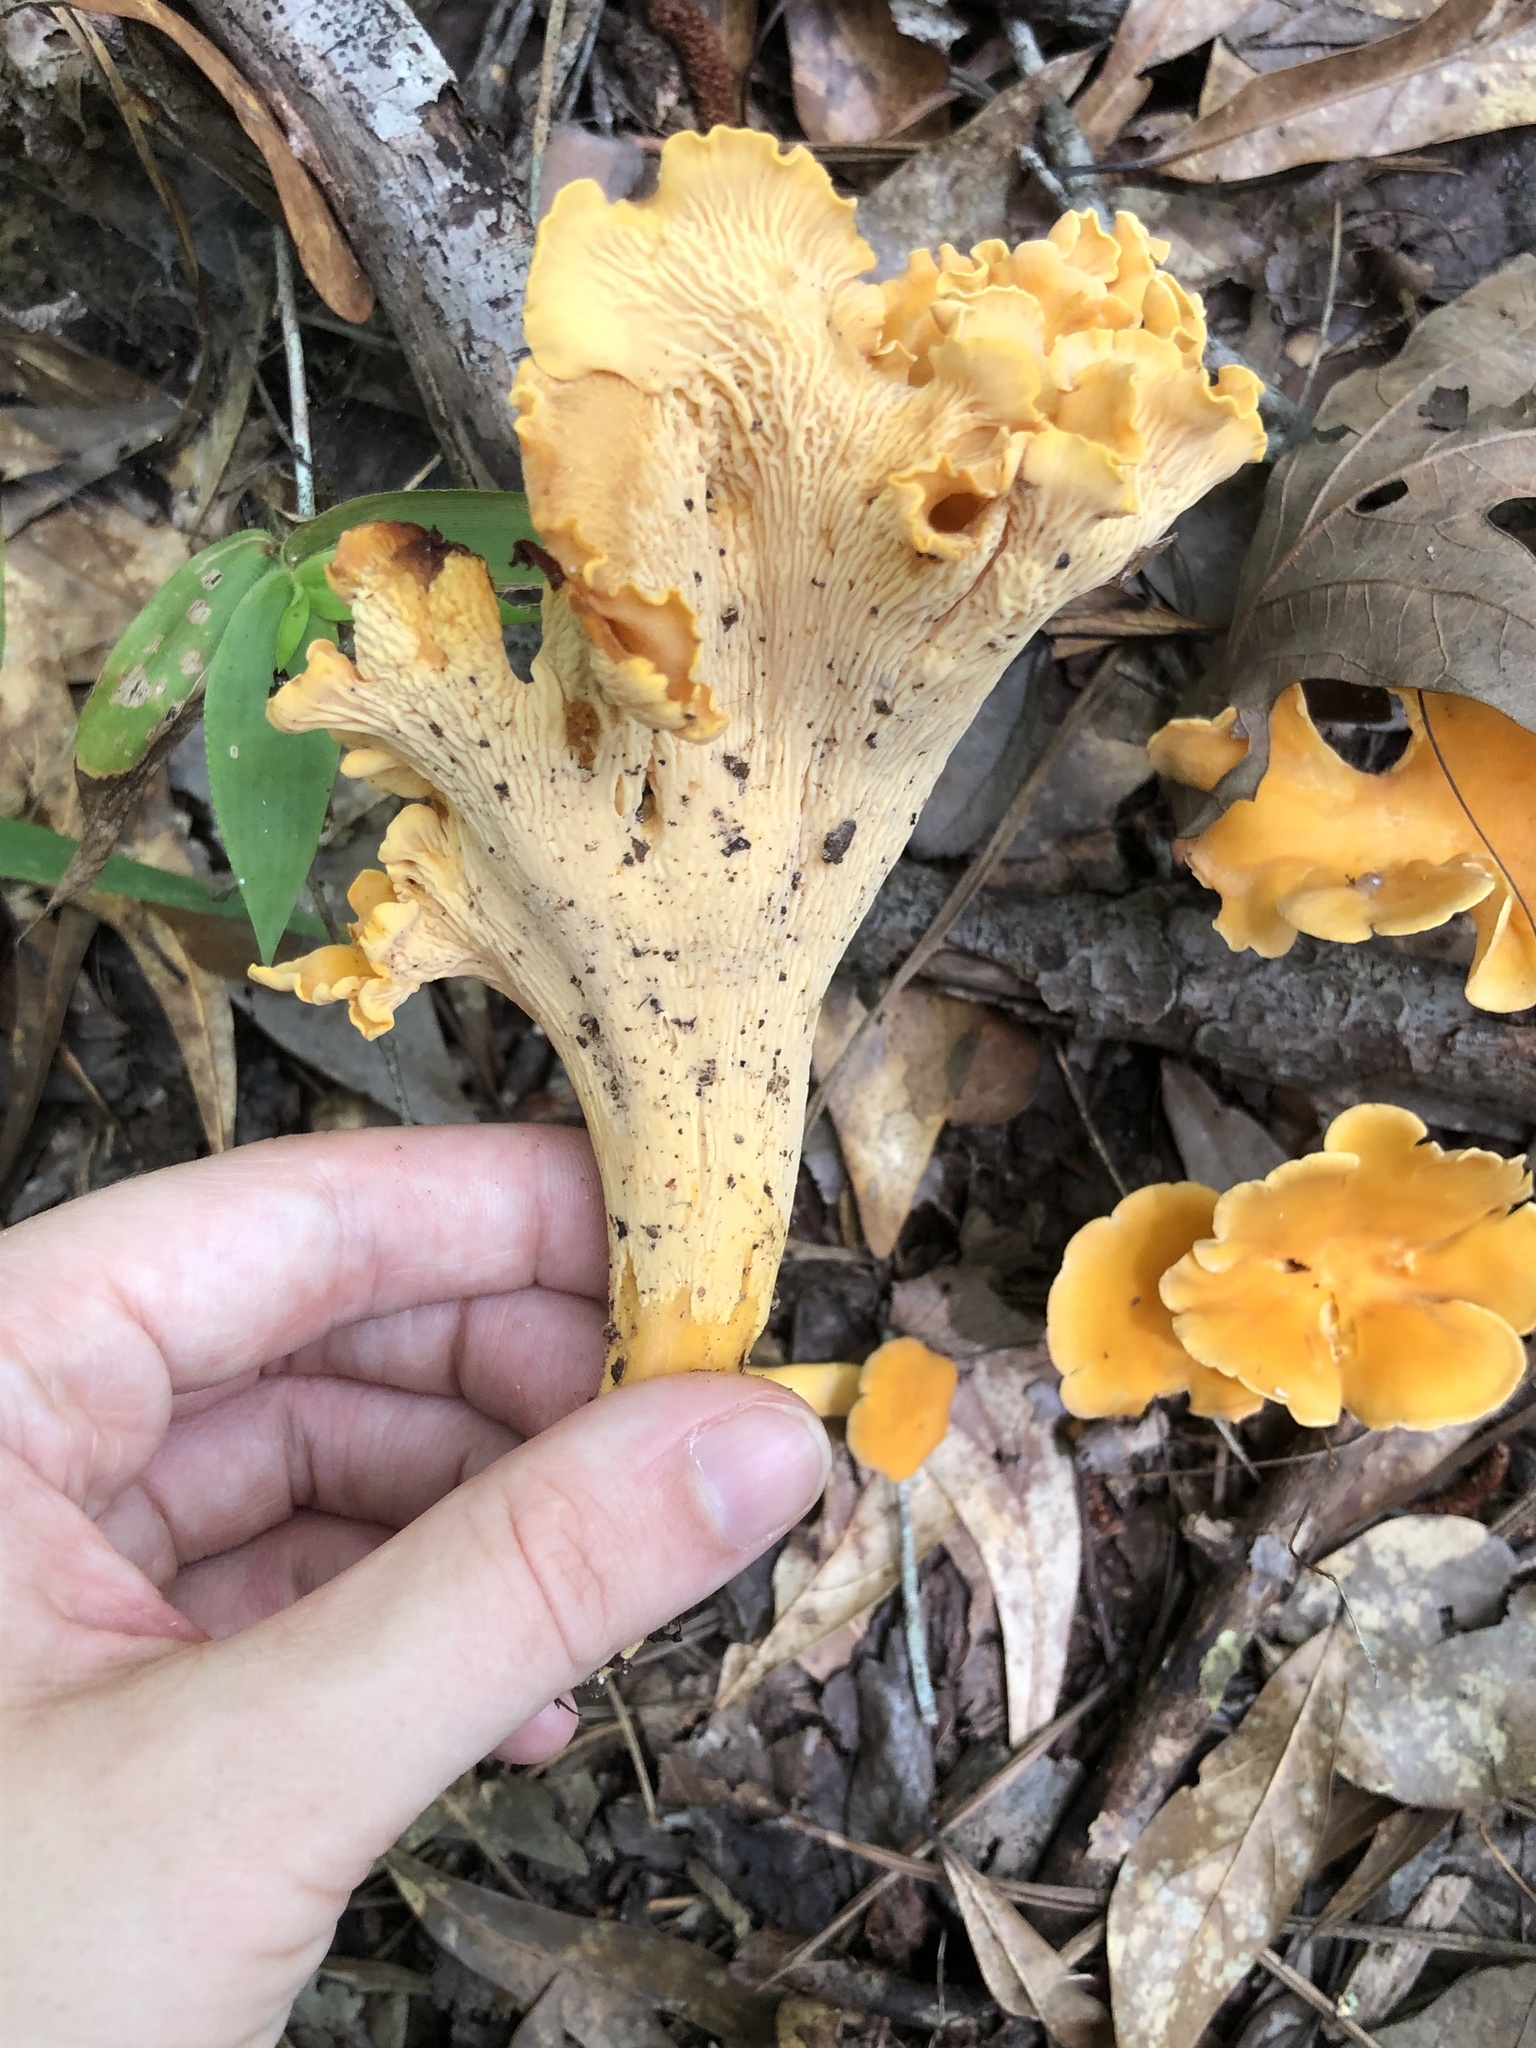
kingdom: Fungi
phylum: Basidiomycota
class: Agaricomycetes
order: Cantharellales
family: Hydnaceae
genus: Cantharellus
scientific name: Cantharellus lateritius
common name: Smooth chanterelle
